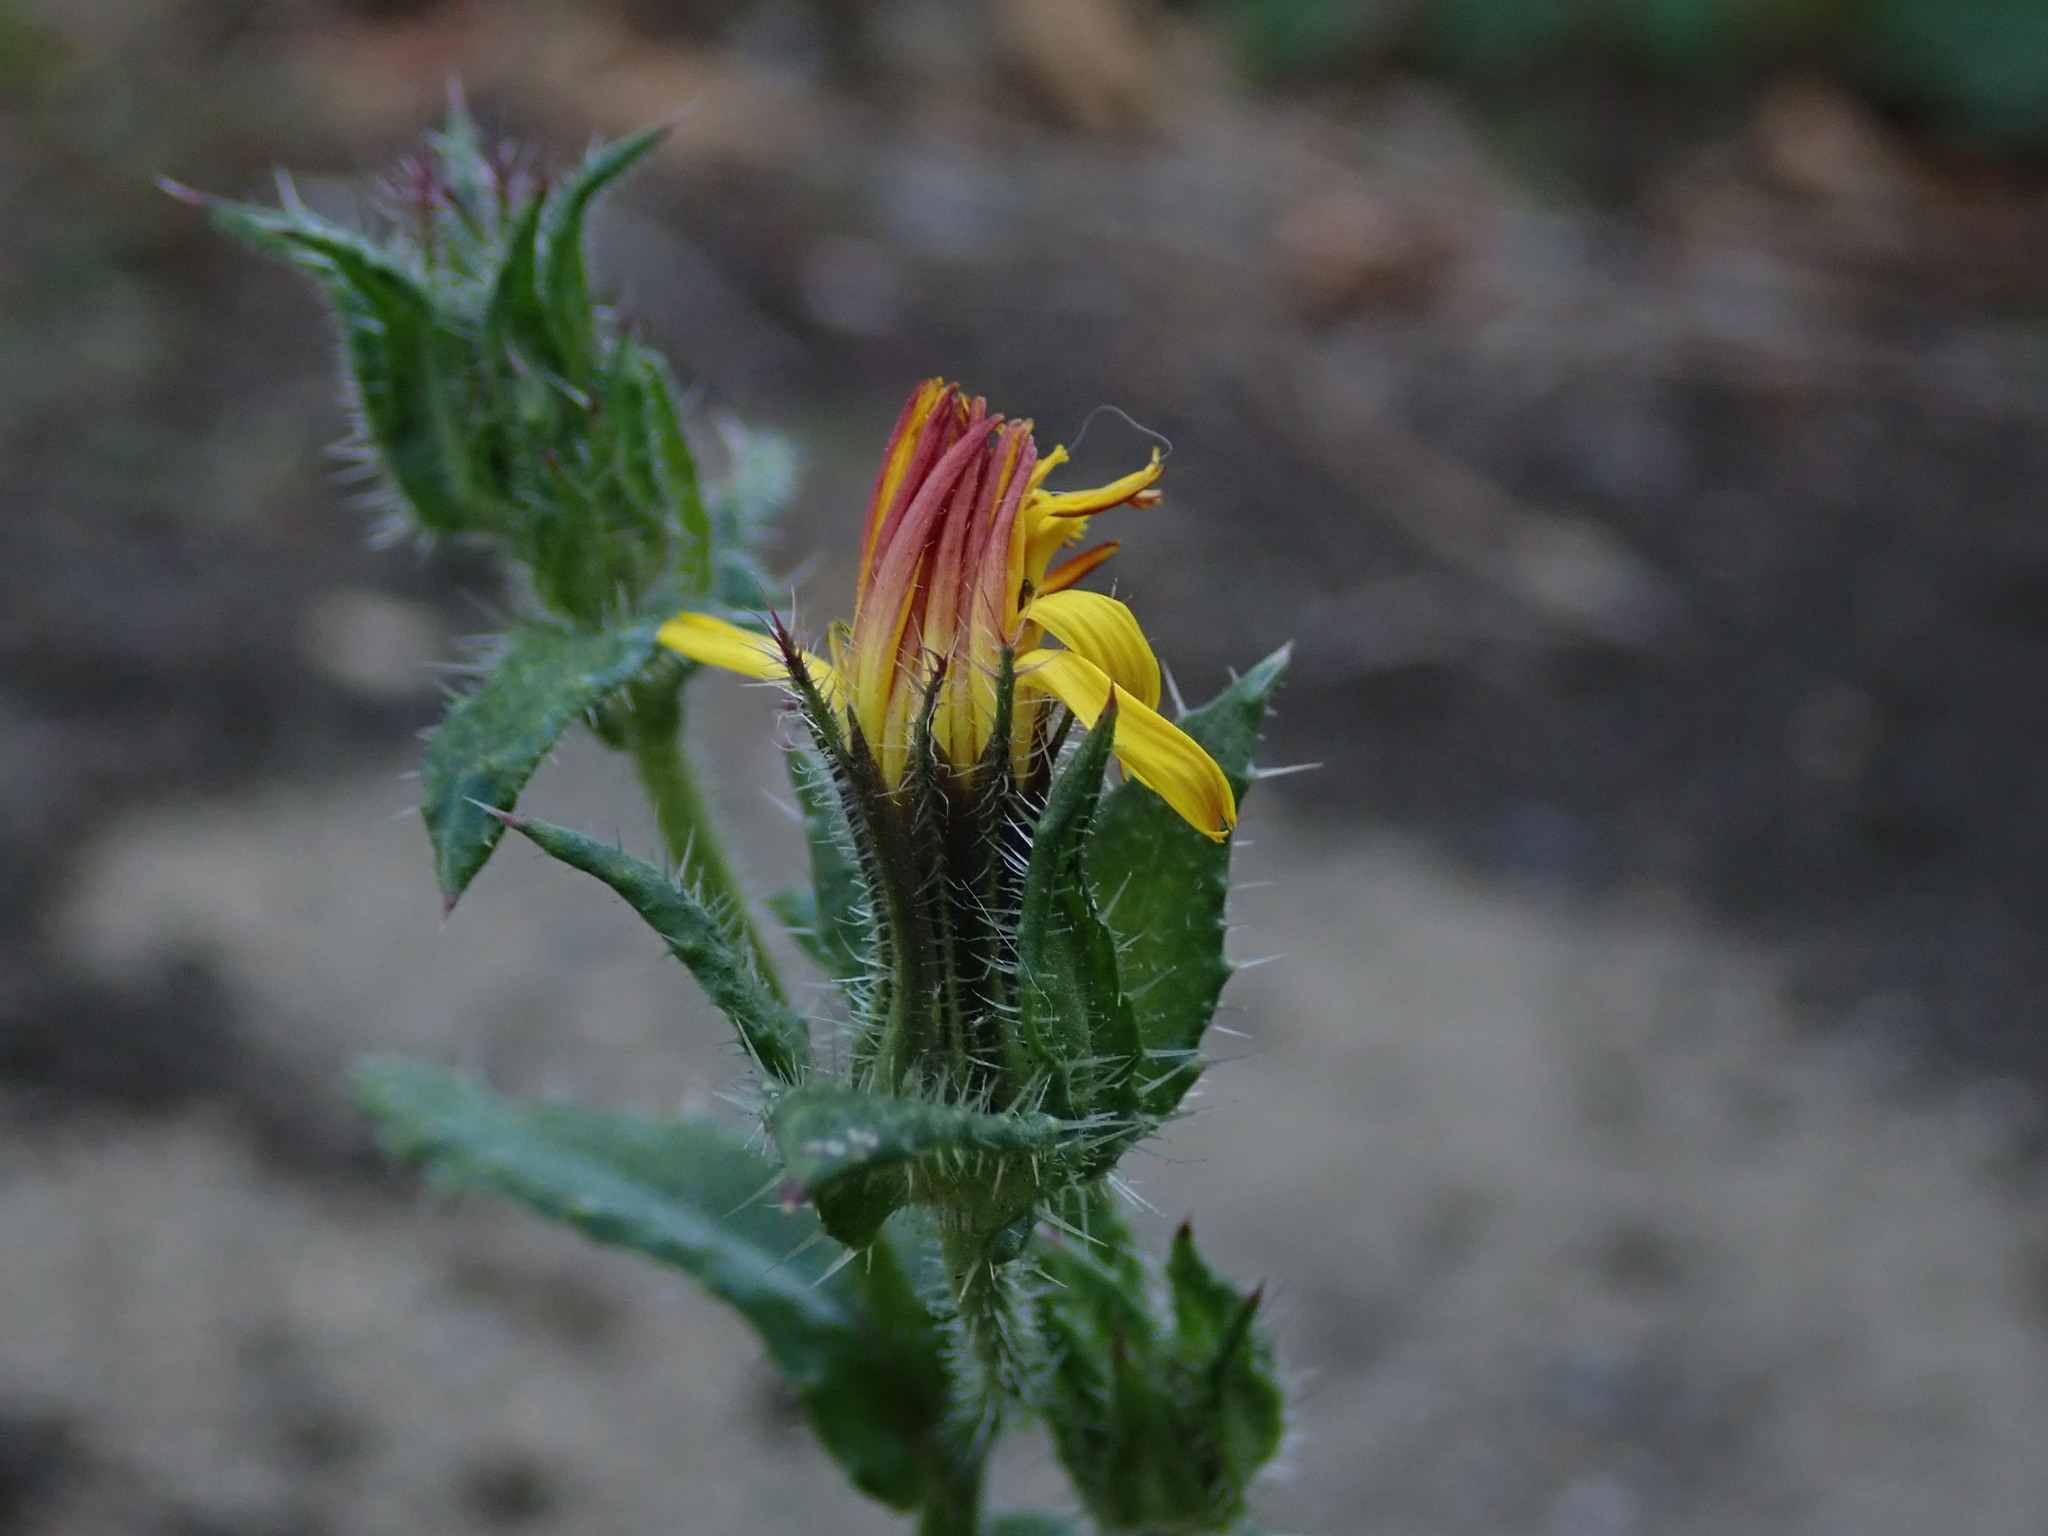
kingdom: Plantae
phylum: Tracheophyta
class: Magnoliopsida
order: Asterales
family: Asteraceae
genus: Helminthotheca
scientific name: Helminthotheca echioides
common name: Ox-tongue
